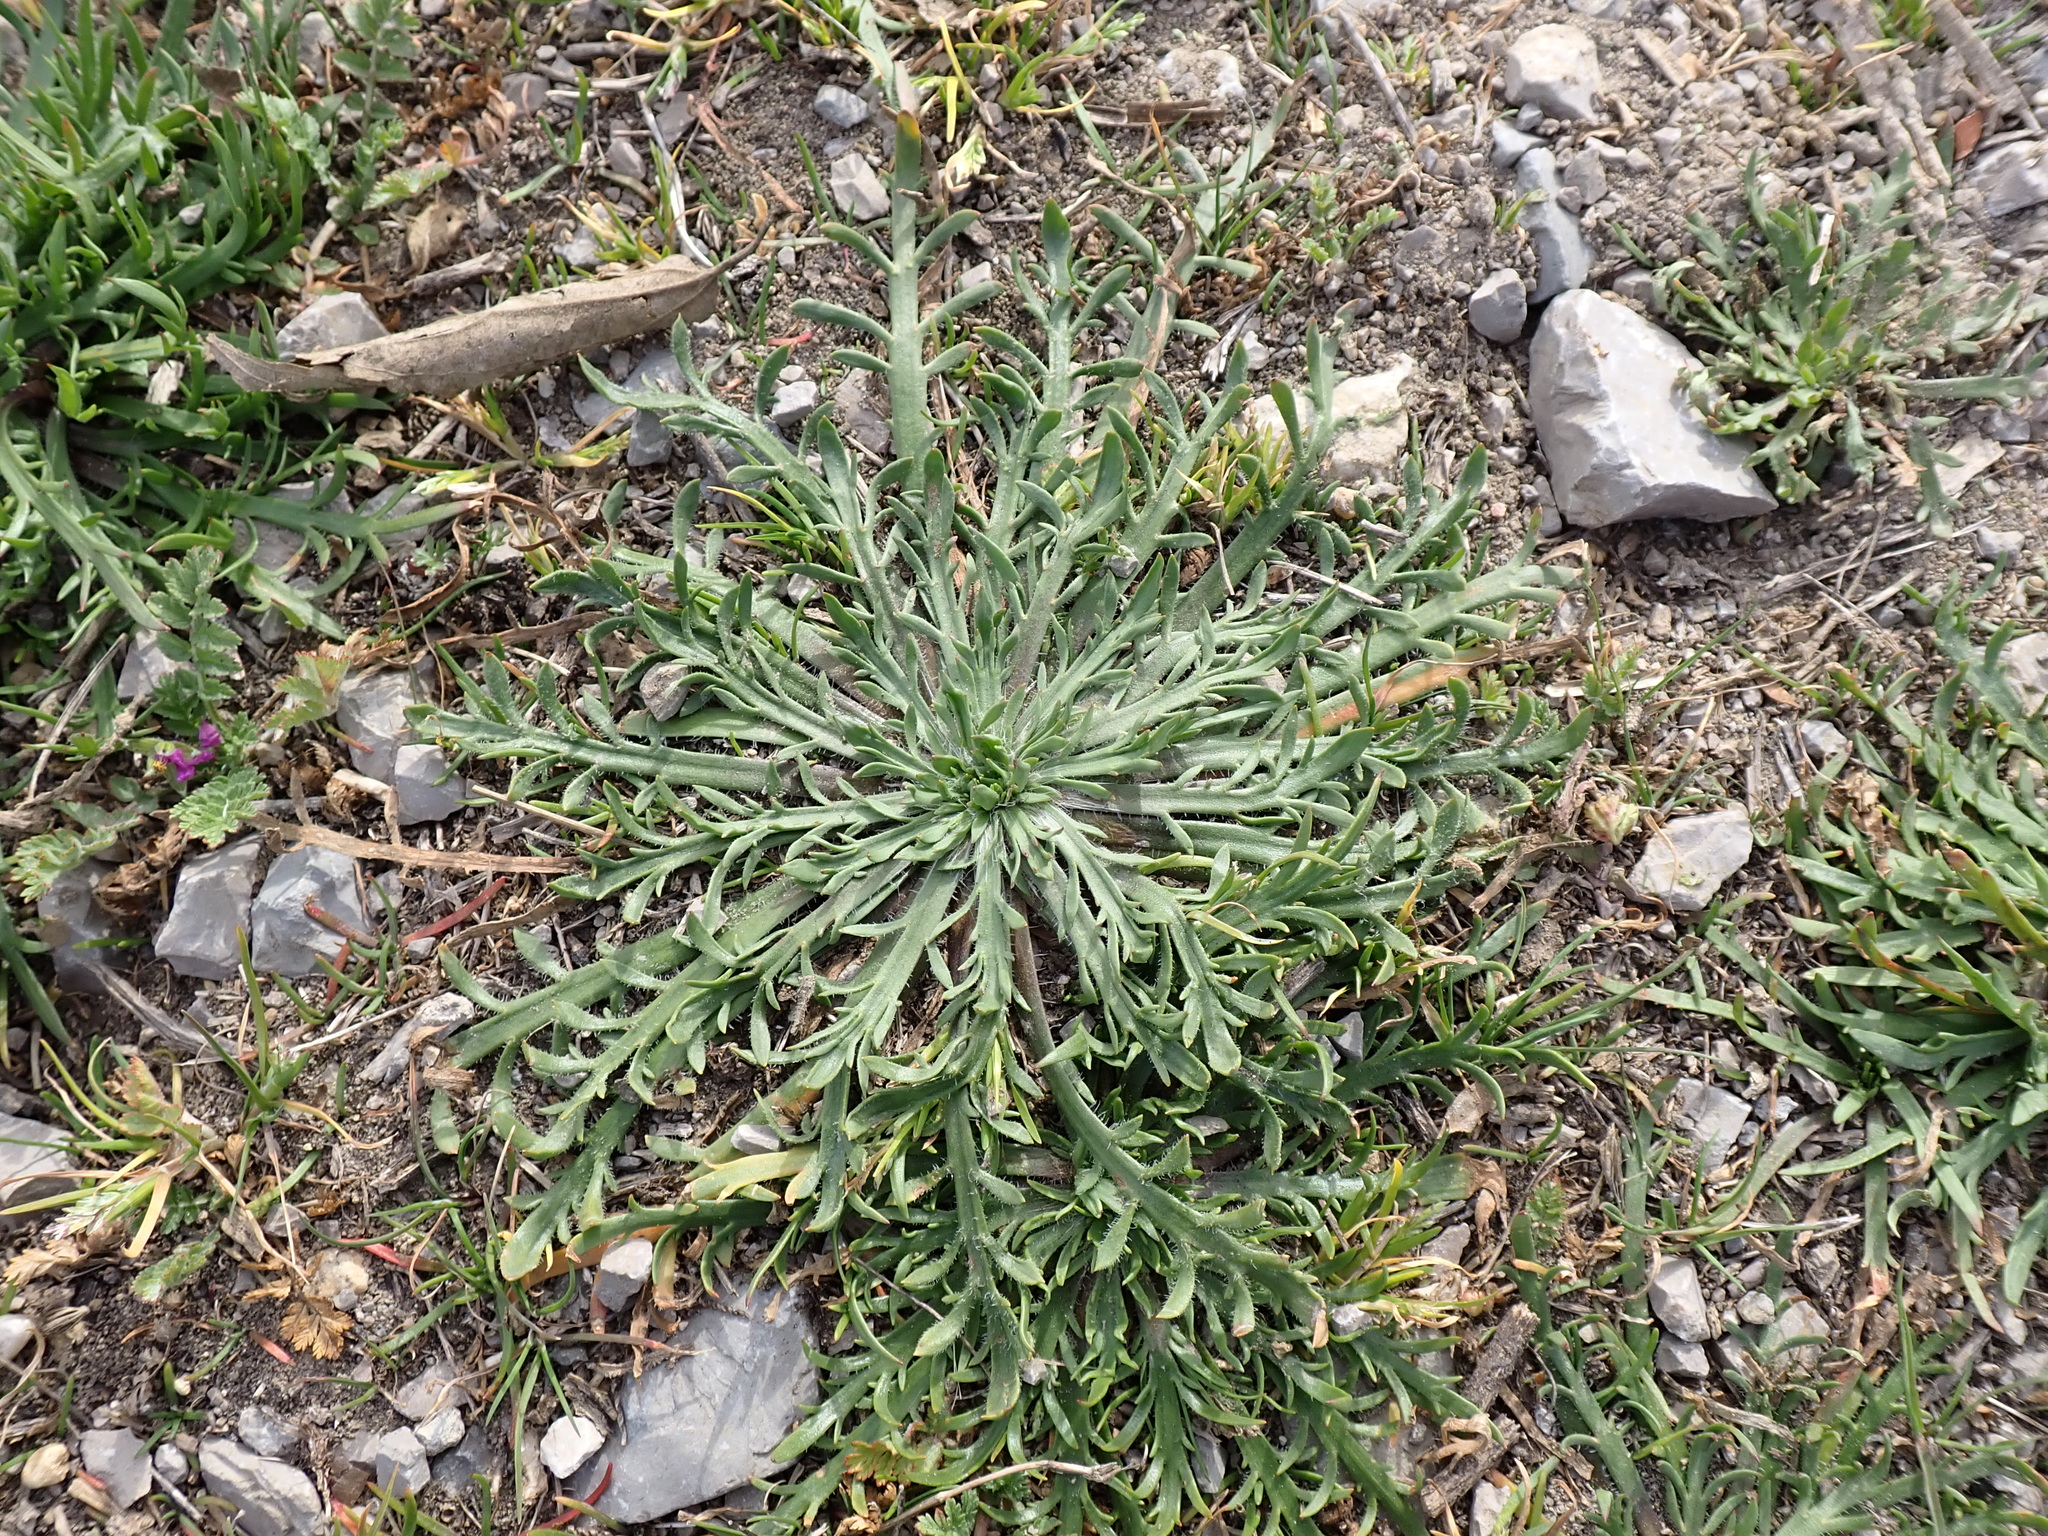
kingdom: Plantae
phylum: Tracheophyta
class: Magnoliopsida
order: Lamiales
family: Plantaginaceae
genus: Plantago
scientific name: Plantago coronopus
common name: Buck's-horn plantain
